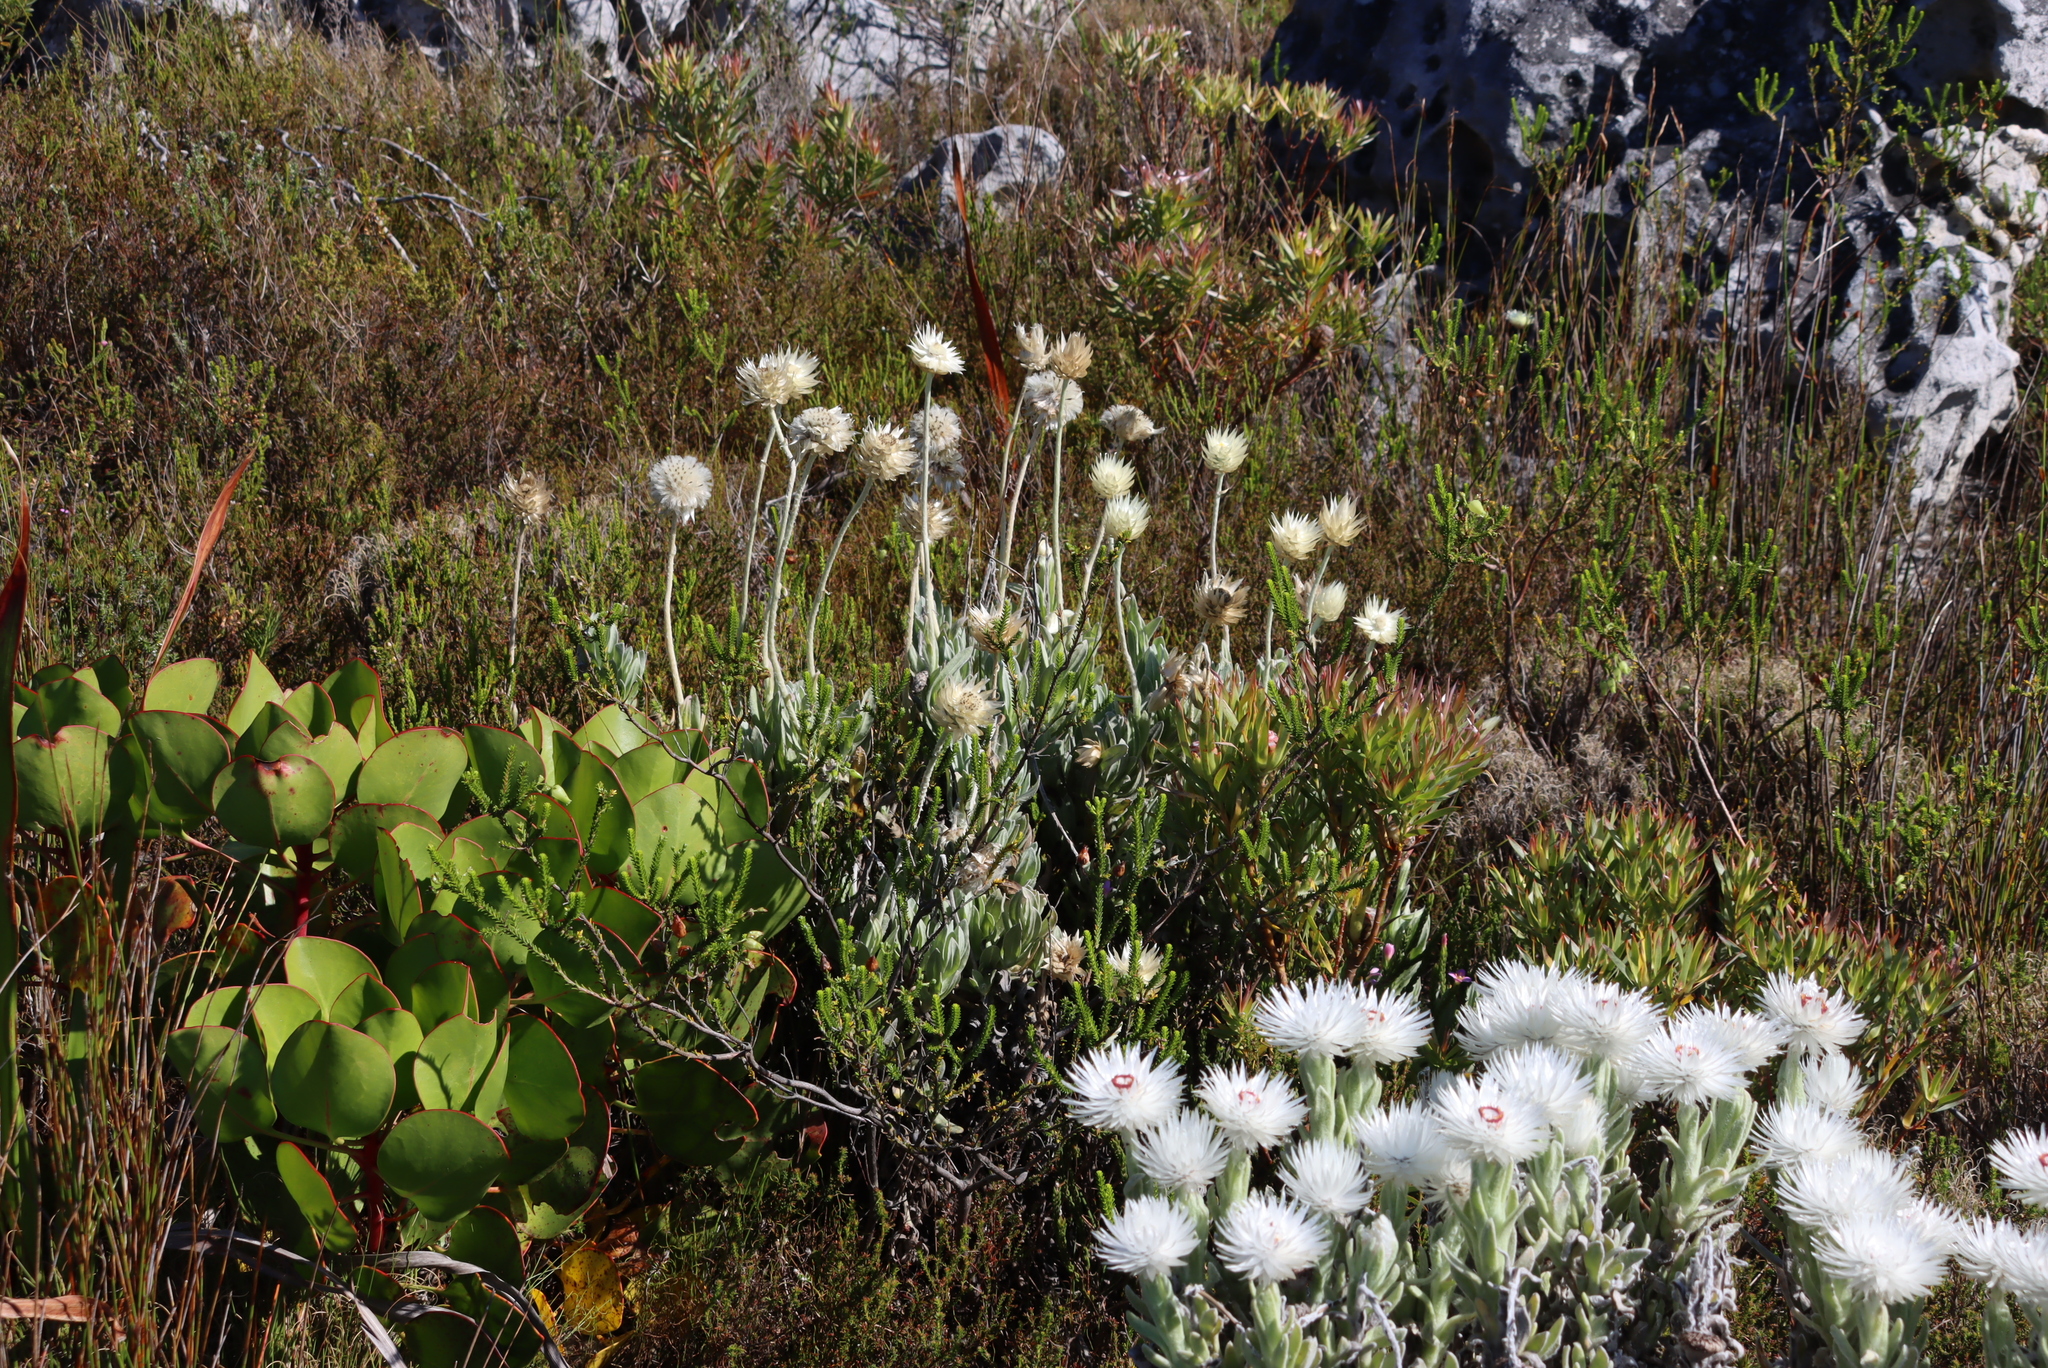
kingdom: Plantae
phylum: Tracheophyta
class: Magnoliopsida
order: Asterales
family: Asteraceae
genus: Syncarpha
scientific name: Syncarpha speciosissima
